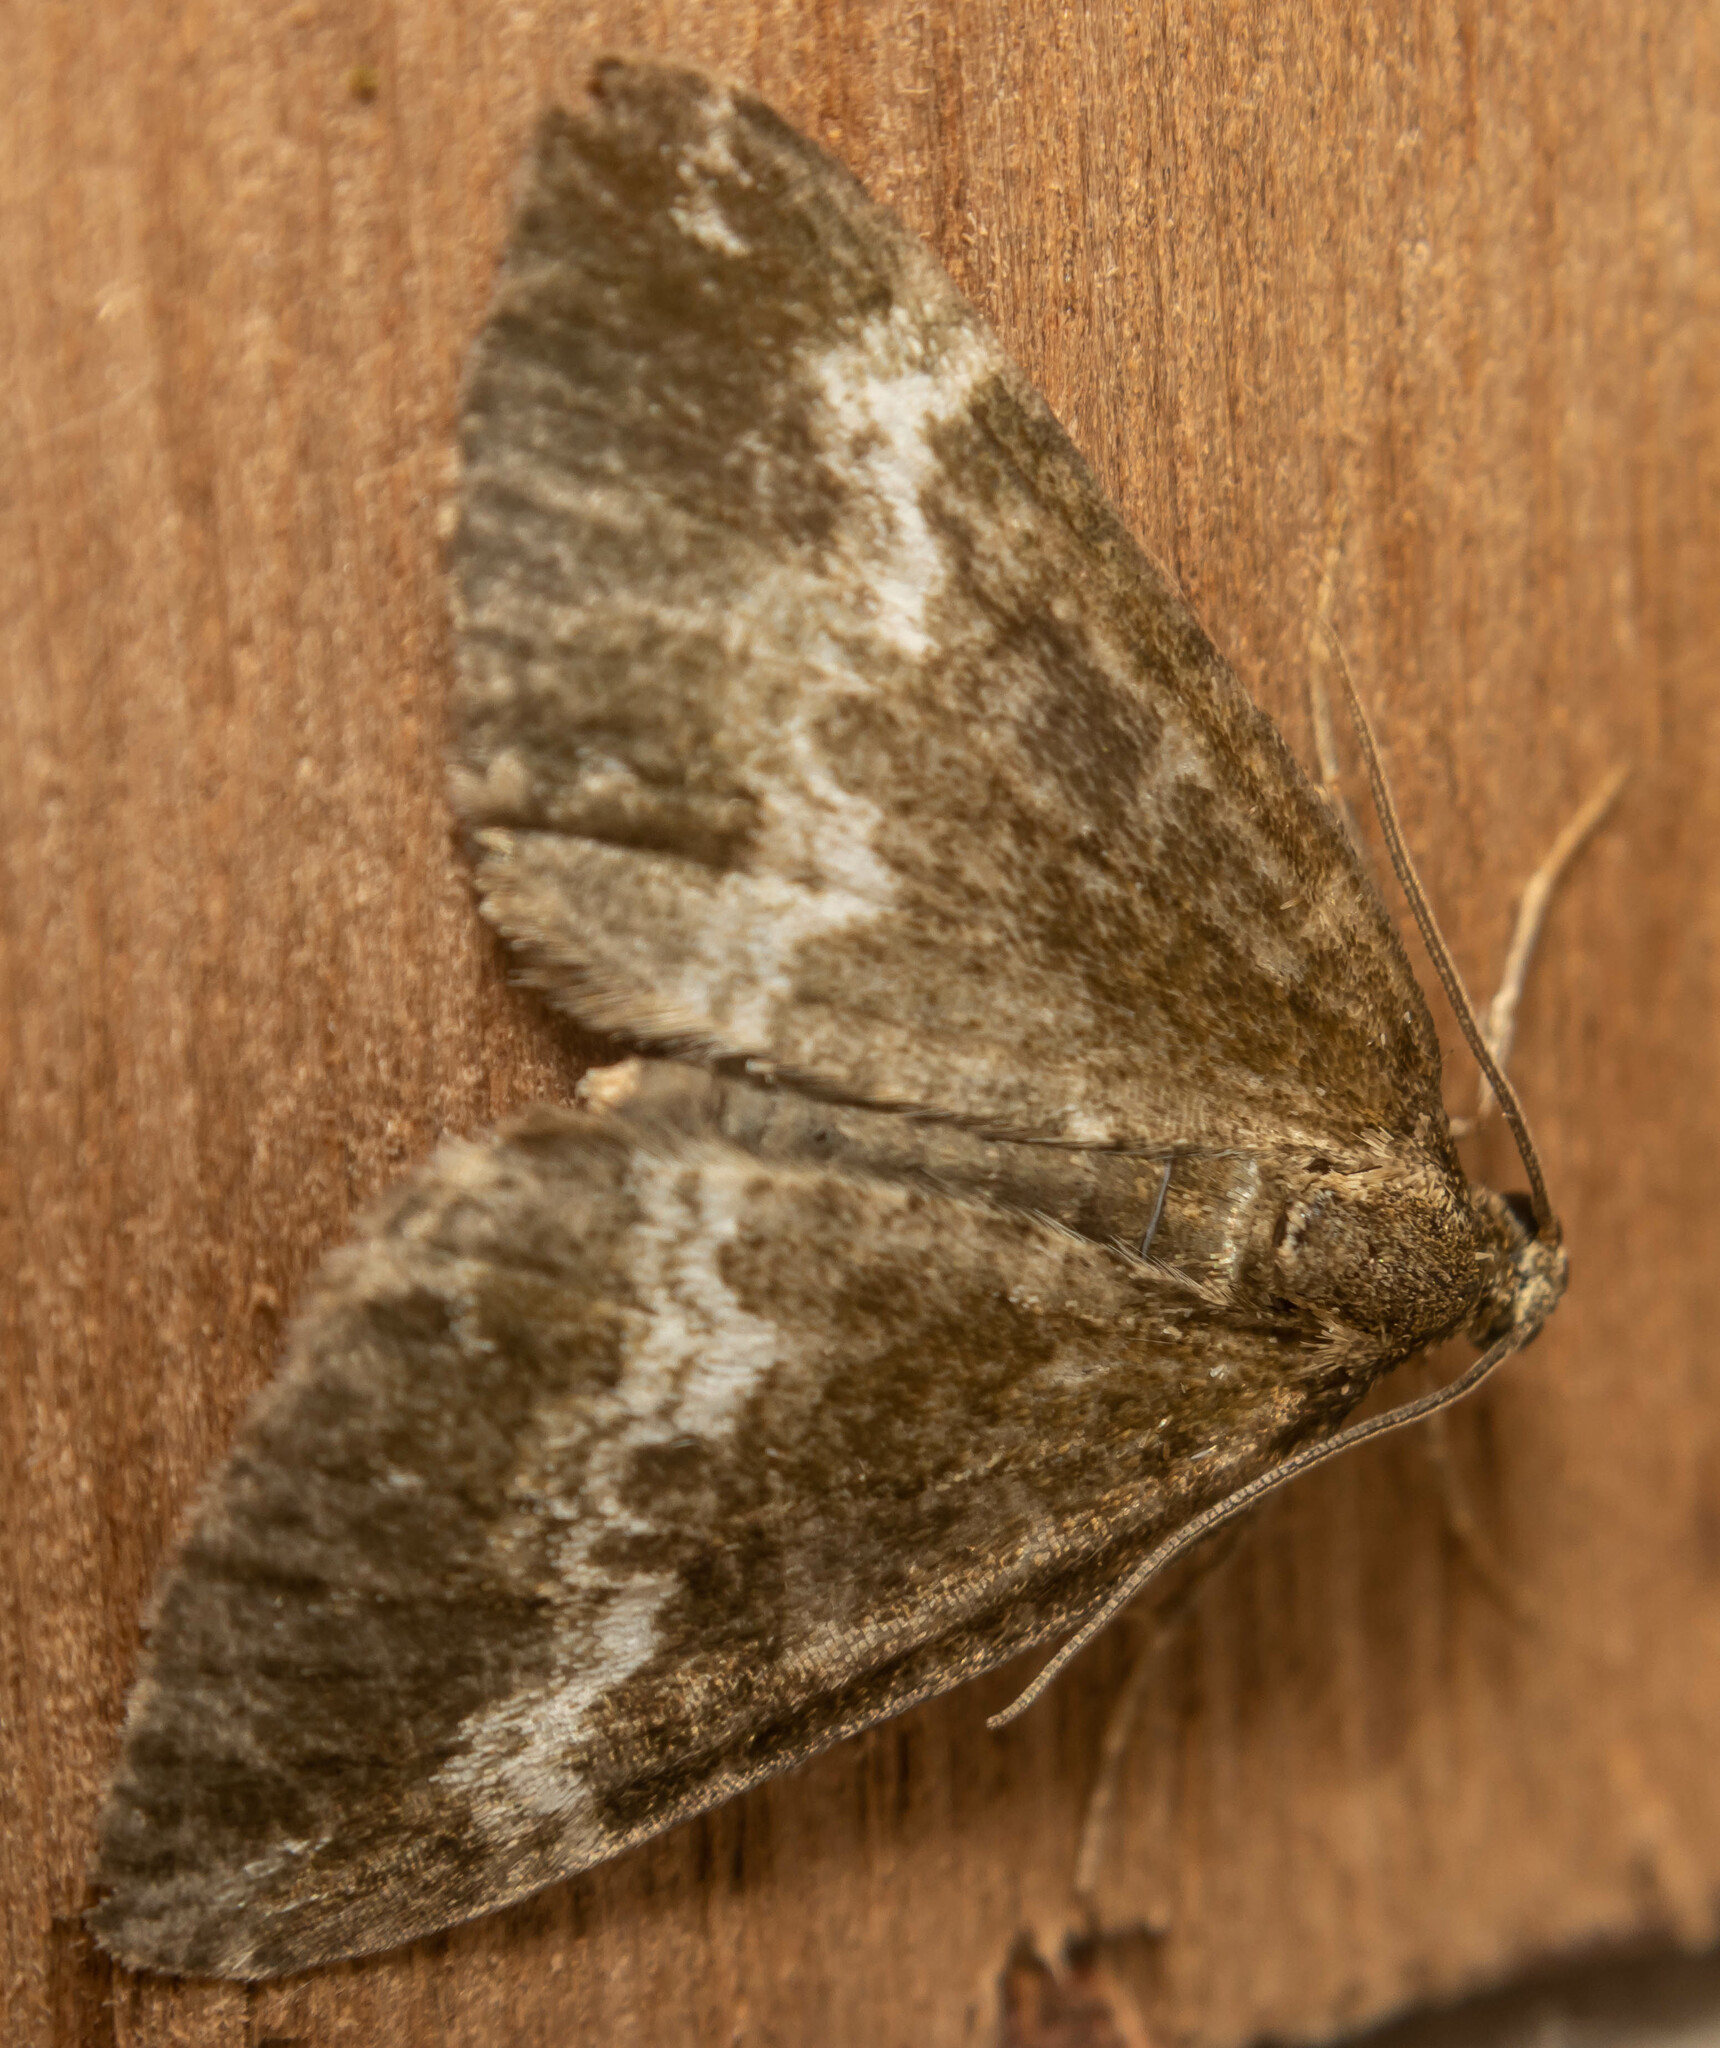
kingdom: Animalia
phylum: Arthropoda
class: Insecta
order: Lepidoptera
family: Geometridae
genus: Perizoma
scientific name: Perizoma affinitata
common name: Rivulet
